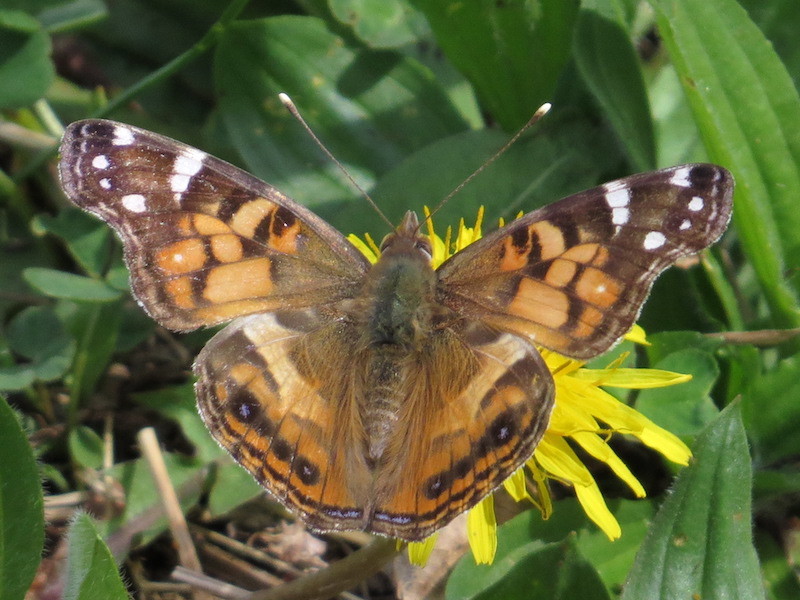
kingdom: Animalia
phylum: Arthropoda
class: Insecta
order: Lepidoptera
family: Nymphalidae
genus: Vanessa
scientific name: Vanessa virginiensis
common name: American lady
